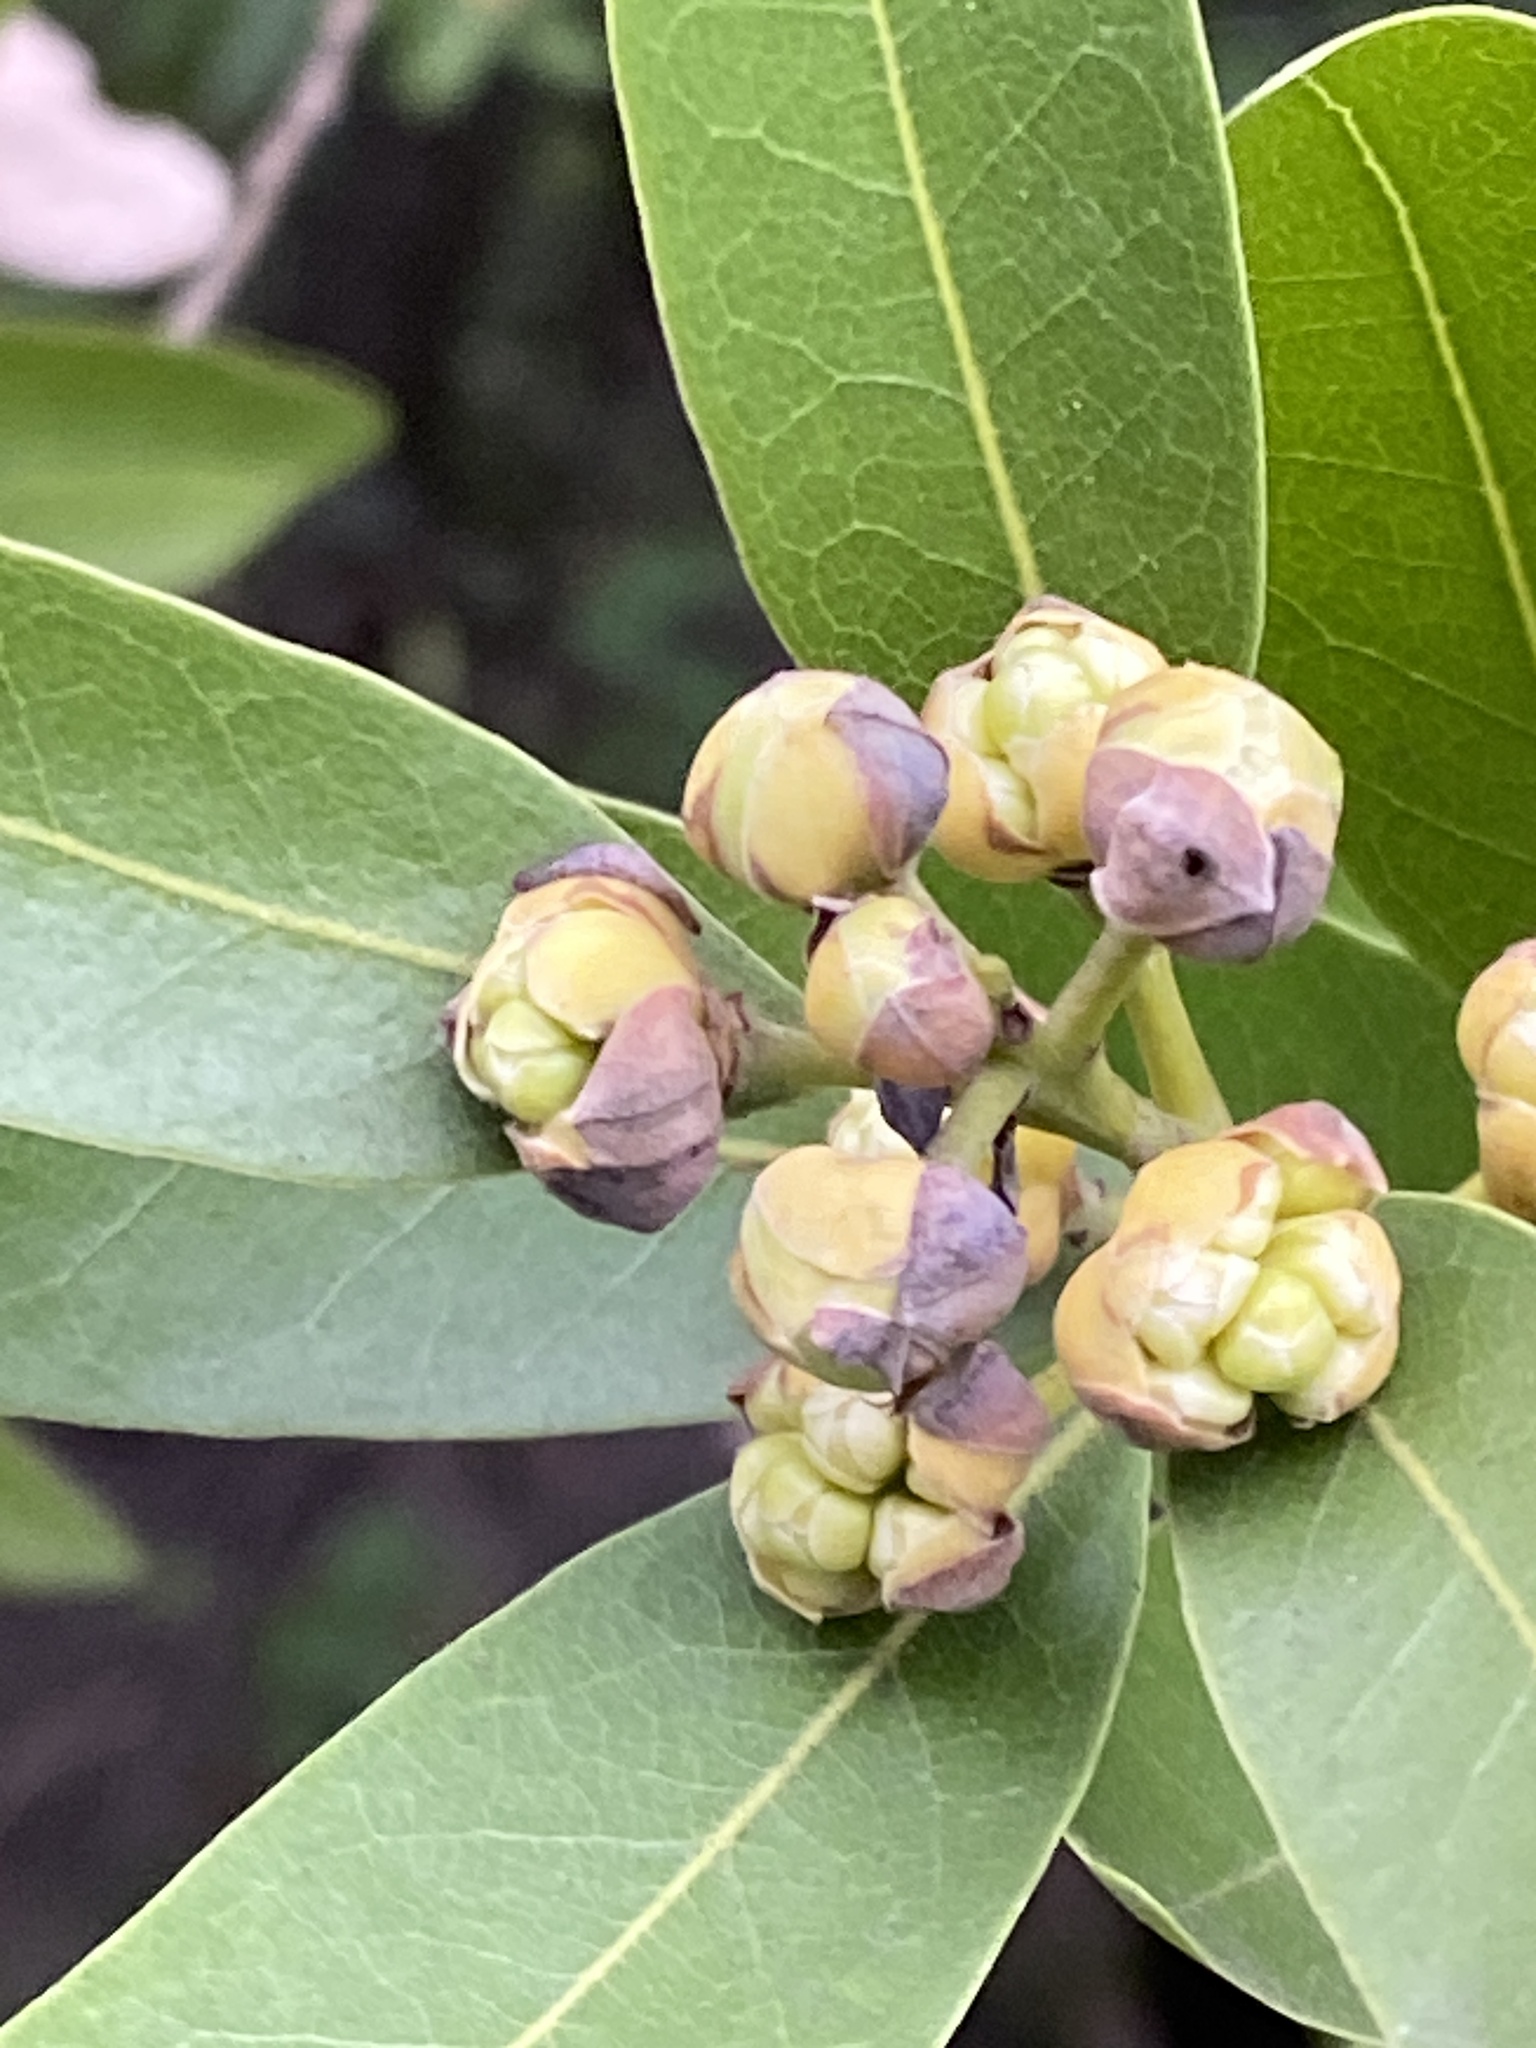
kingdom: Plantae
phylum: Tracheophyta
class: Magnoliopsida
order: Laurales
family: Lauraceae
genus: Umbellularia
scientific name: Umbellularia californica
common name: California bay
